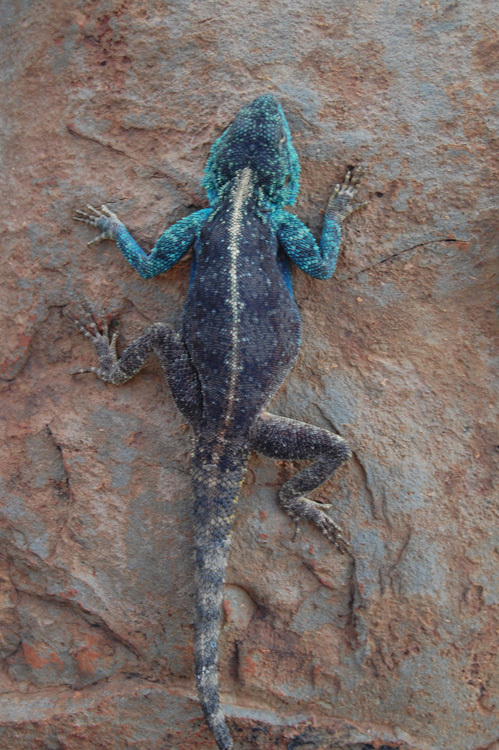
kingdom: Animalia
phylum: Chordata
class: Squamata
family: Agamidae
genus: Agama
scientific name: Agama atra
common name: Southern african rock agama
